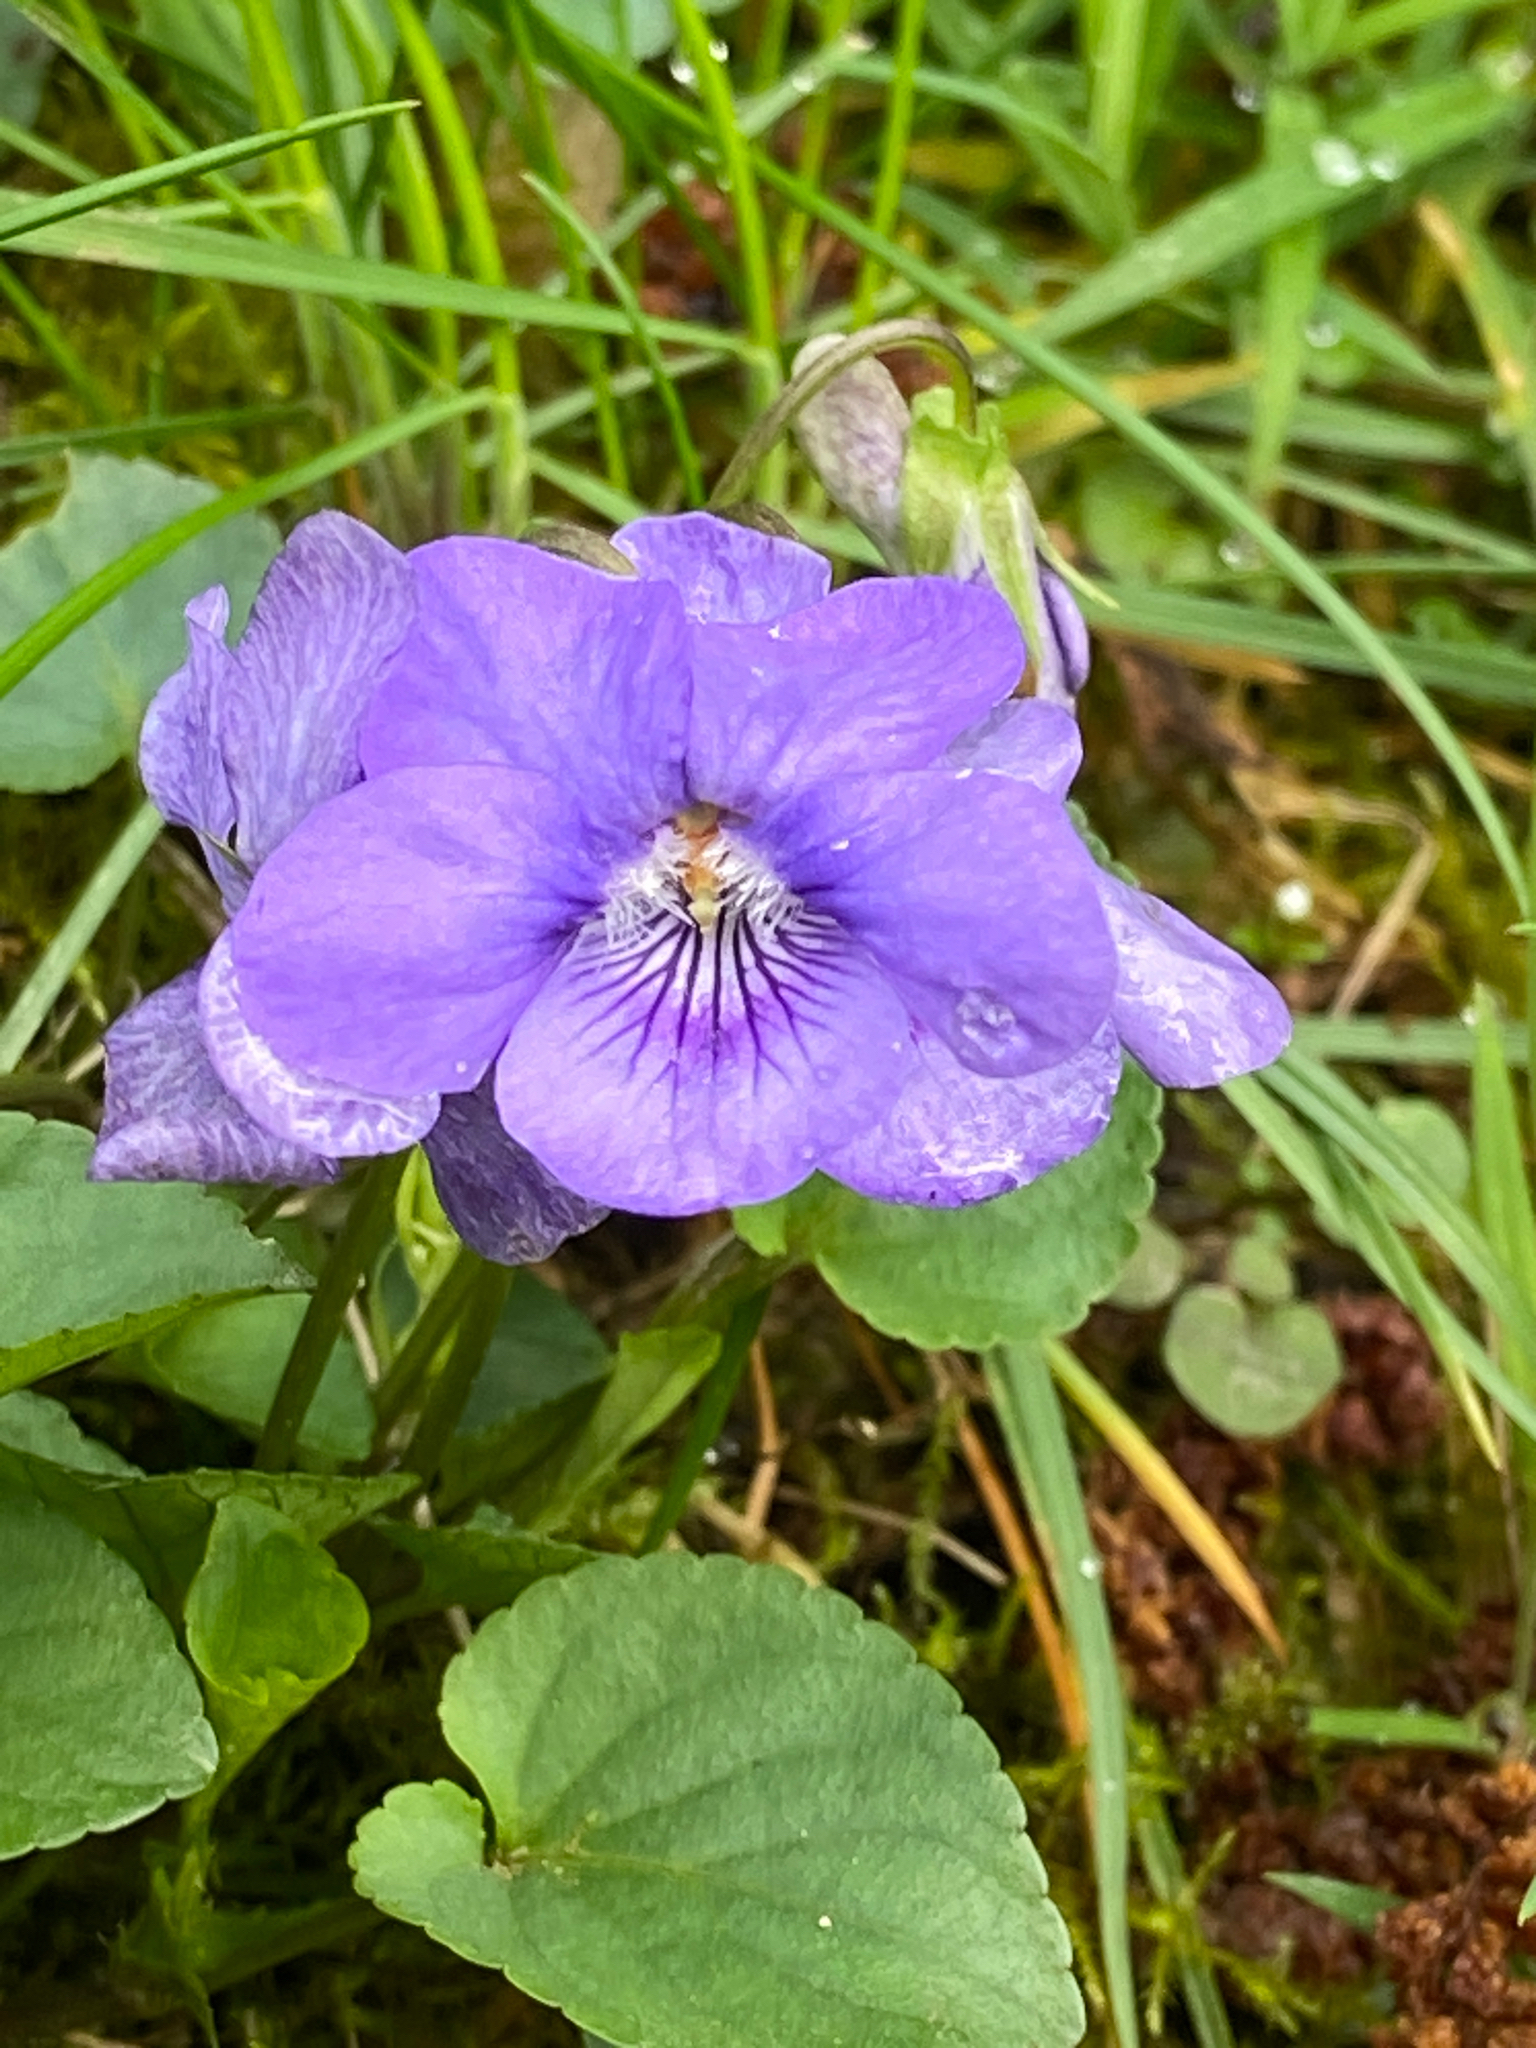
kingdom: Plantae
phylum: Tracheophyta
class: Magnoliopsida
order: Malpighiales
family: Violaceae
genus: Viola
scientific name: Viola riviniana
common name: Common dog-violet
